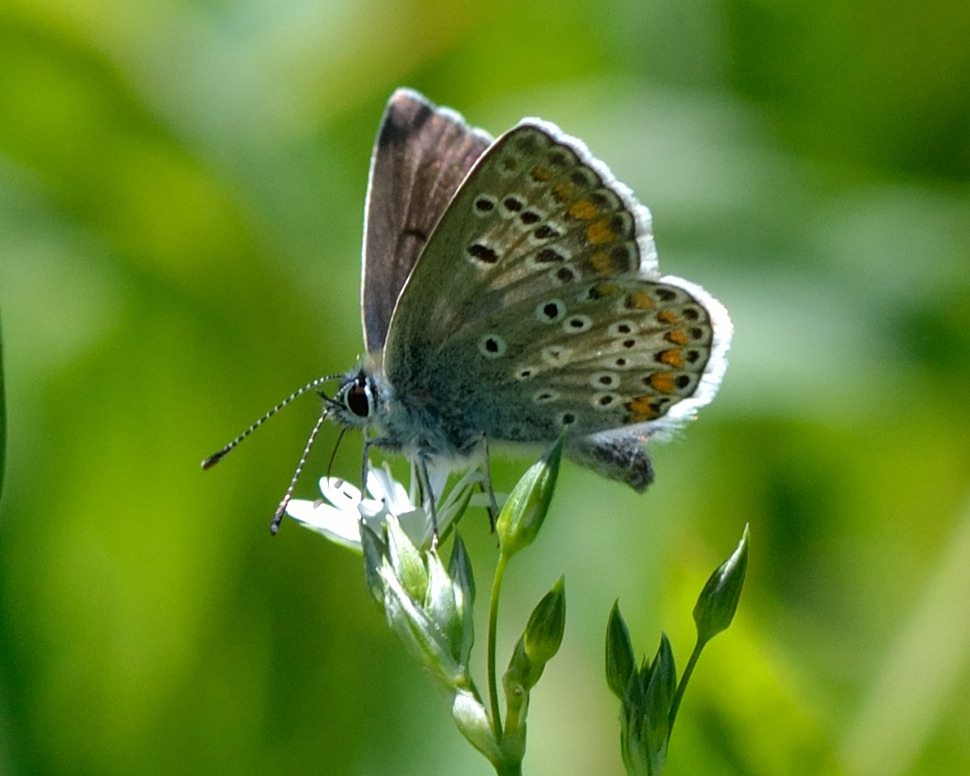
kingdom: Animalia
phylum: Arthropoda
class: Insecta
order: Lepidoptera
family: Lycaenidae
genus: Aricia
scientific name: Aricia artaxerxes
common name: Northern brown argus
